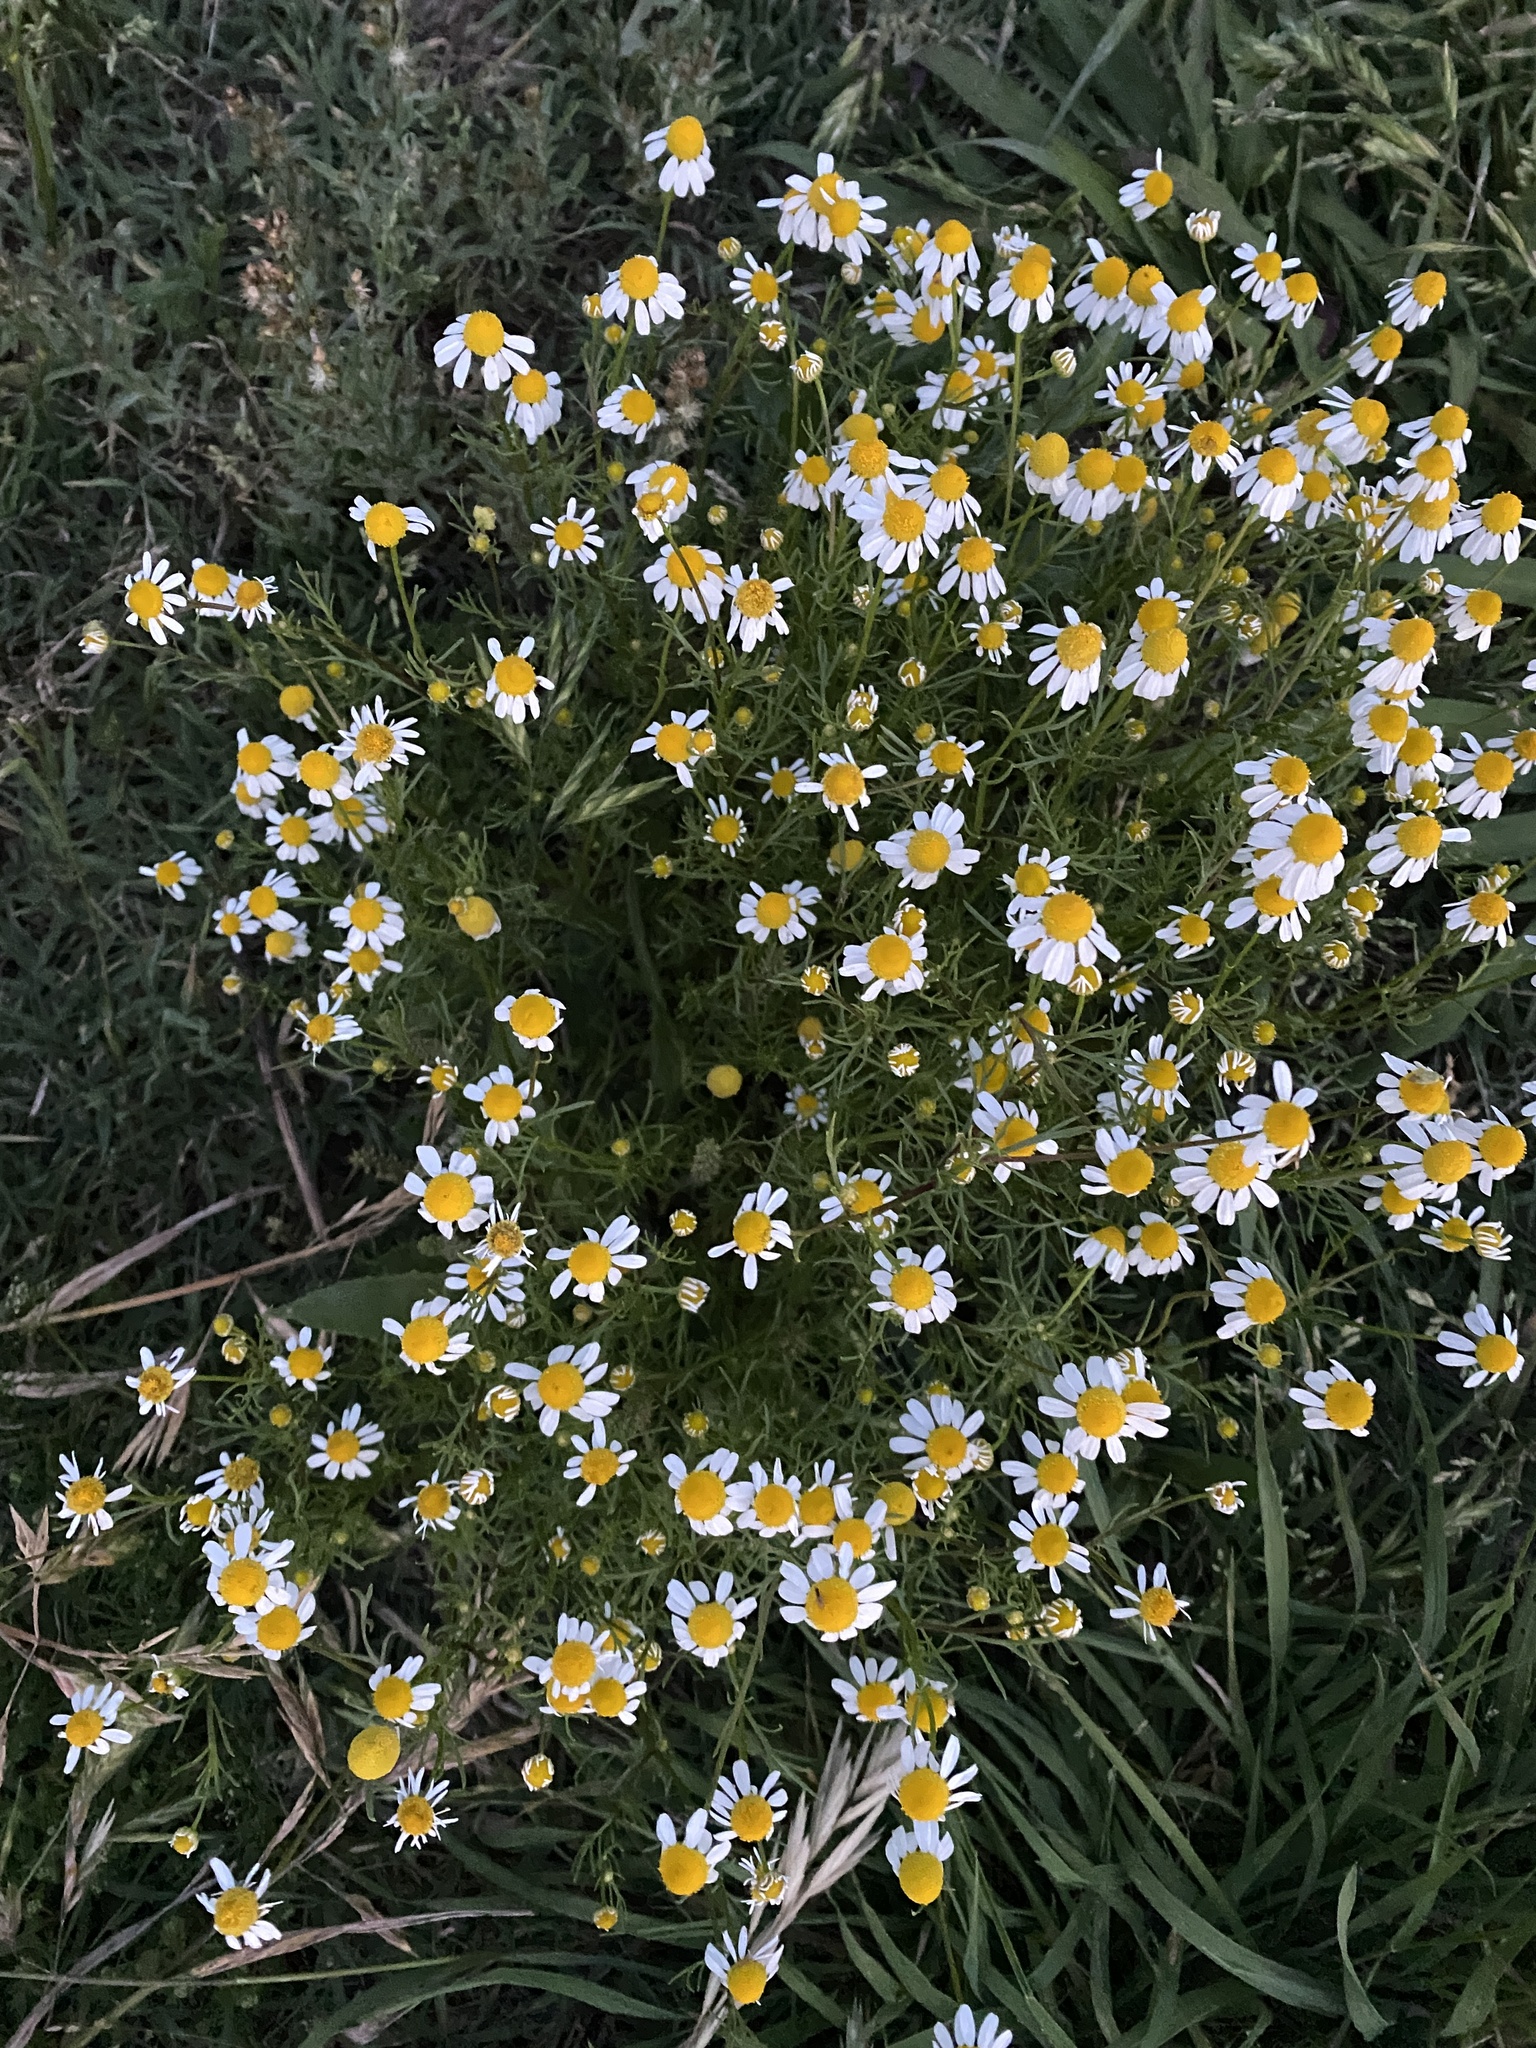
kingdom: Plantae
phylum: Tracheophyta
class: Magnoliopsida
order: Asterales
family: Asteraceae
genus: Matricaria
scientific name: Matricaria chamomilla
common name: Scented mayweed
